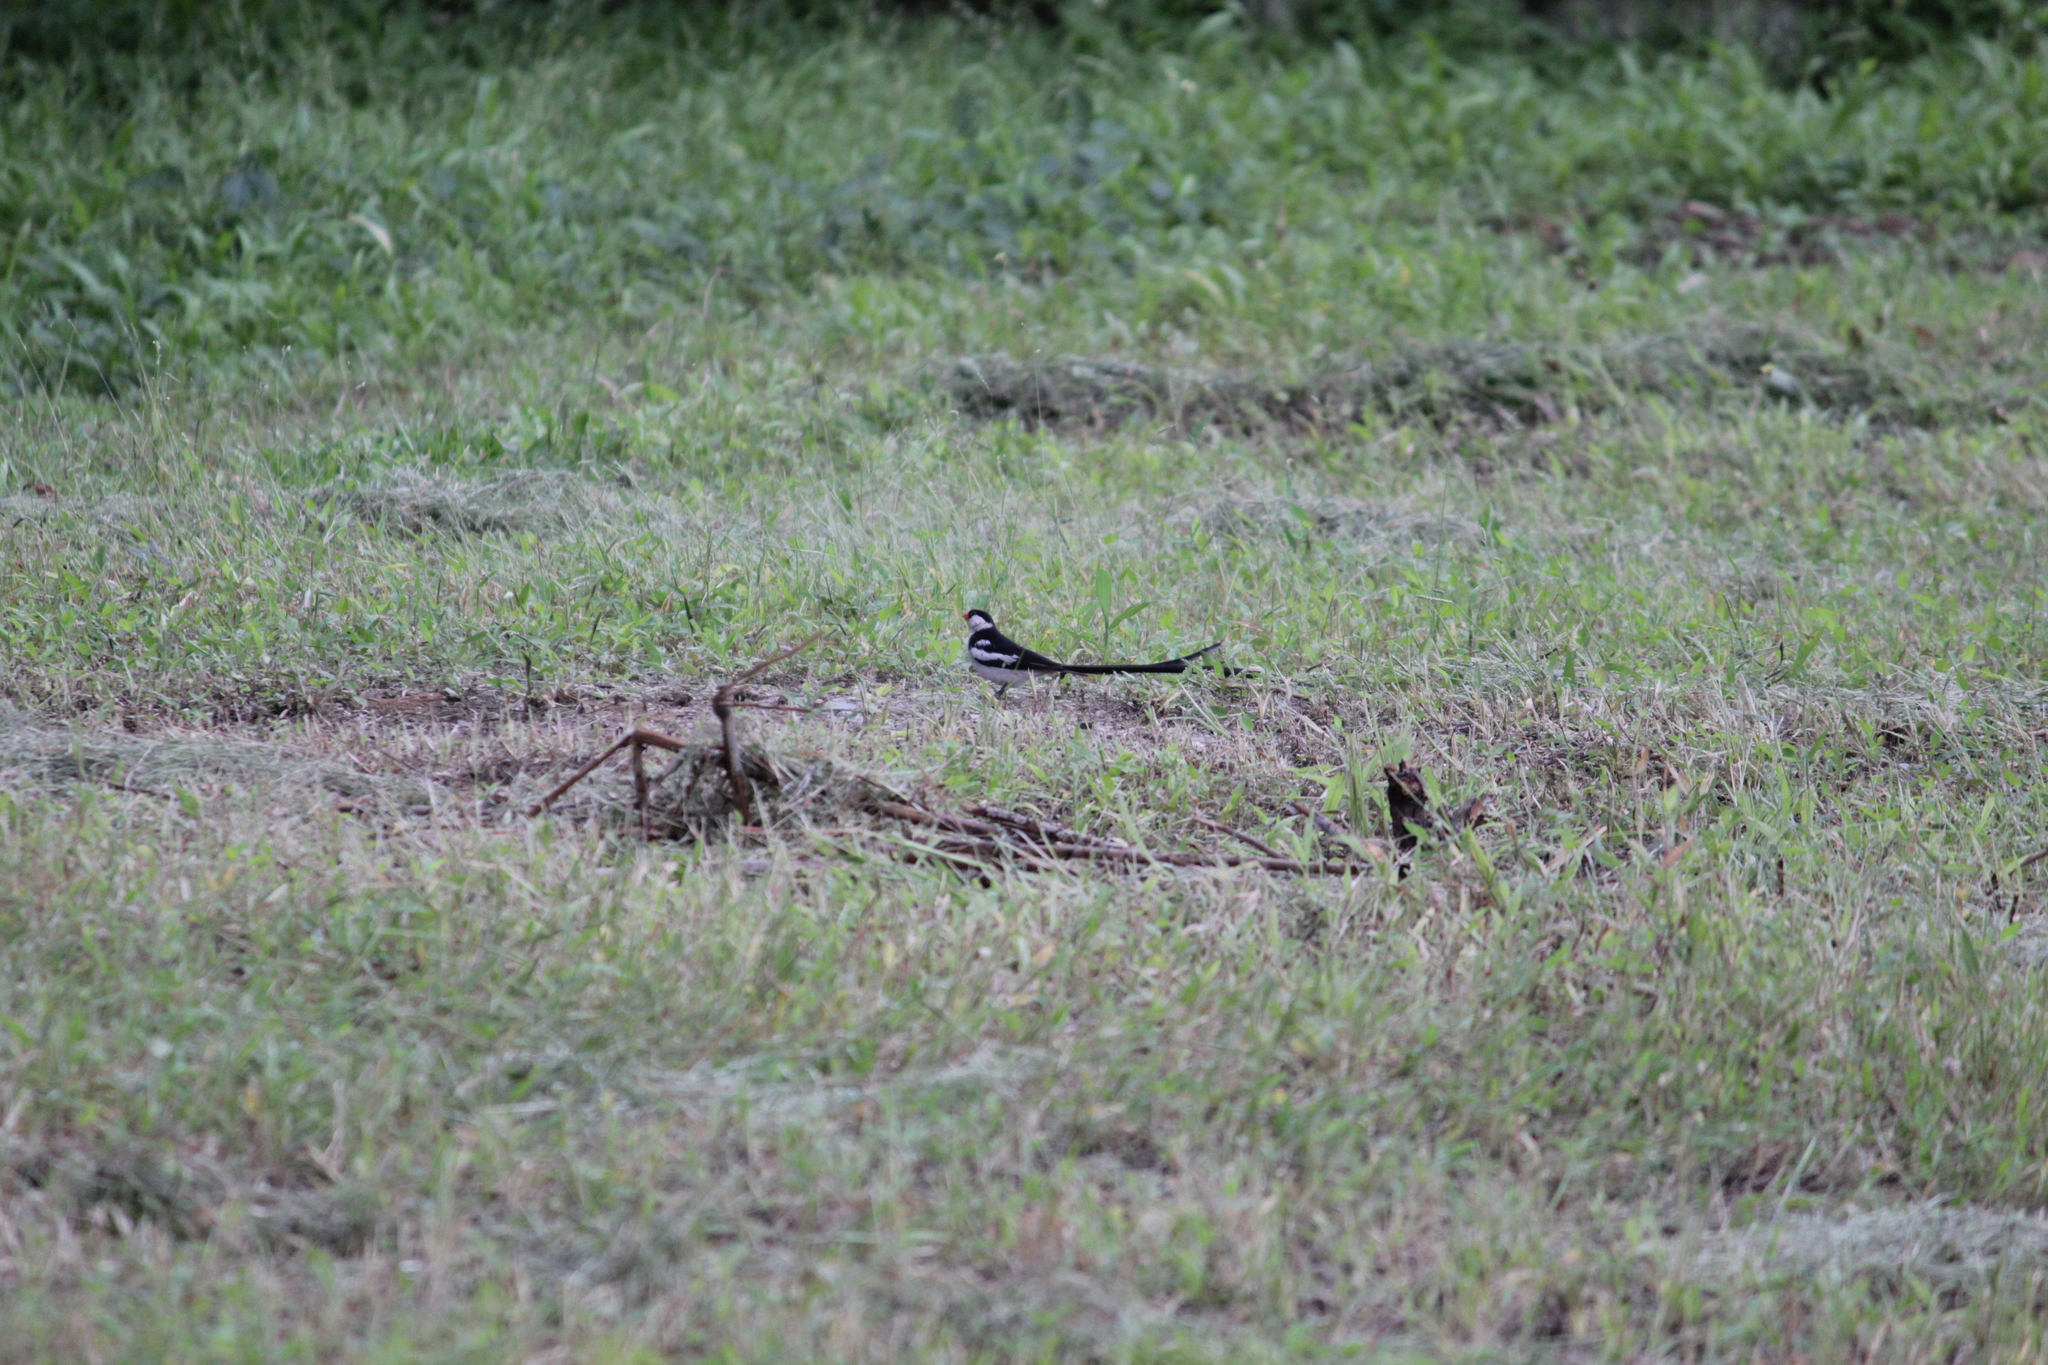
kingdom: Animalia
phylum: Chordata
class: Aves
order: Passeriformes
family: Viduidae
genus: Vidua
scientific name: Vidua macroura
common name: Pin-tailed whydah
